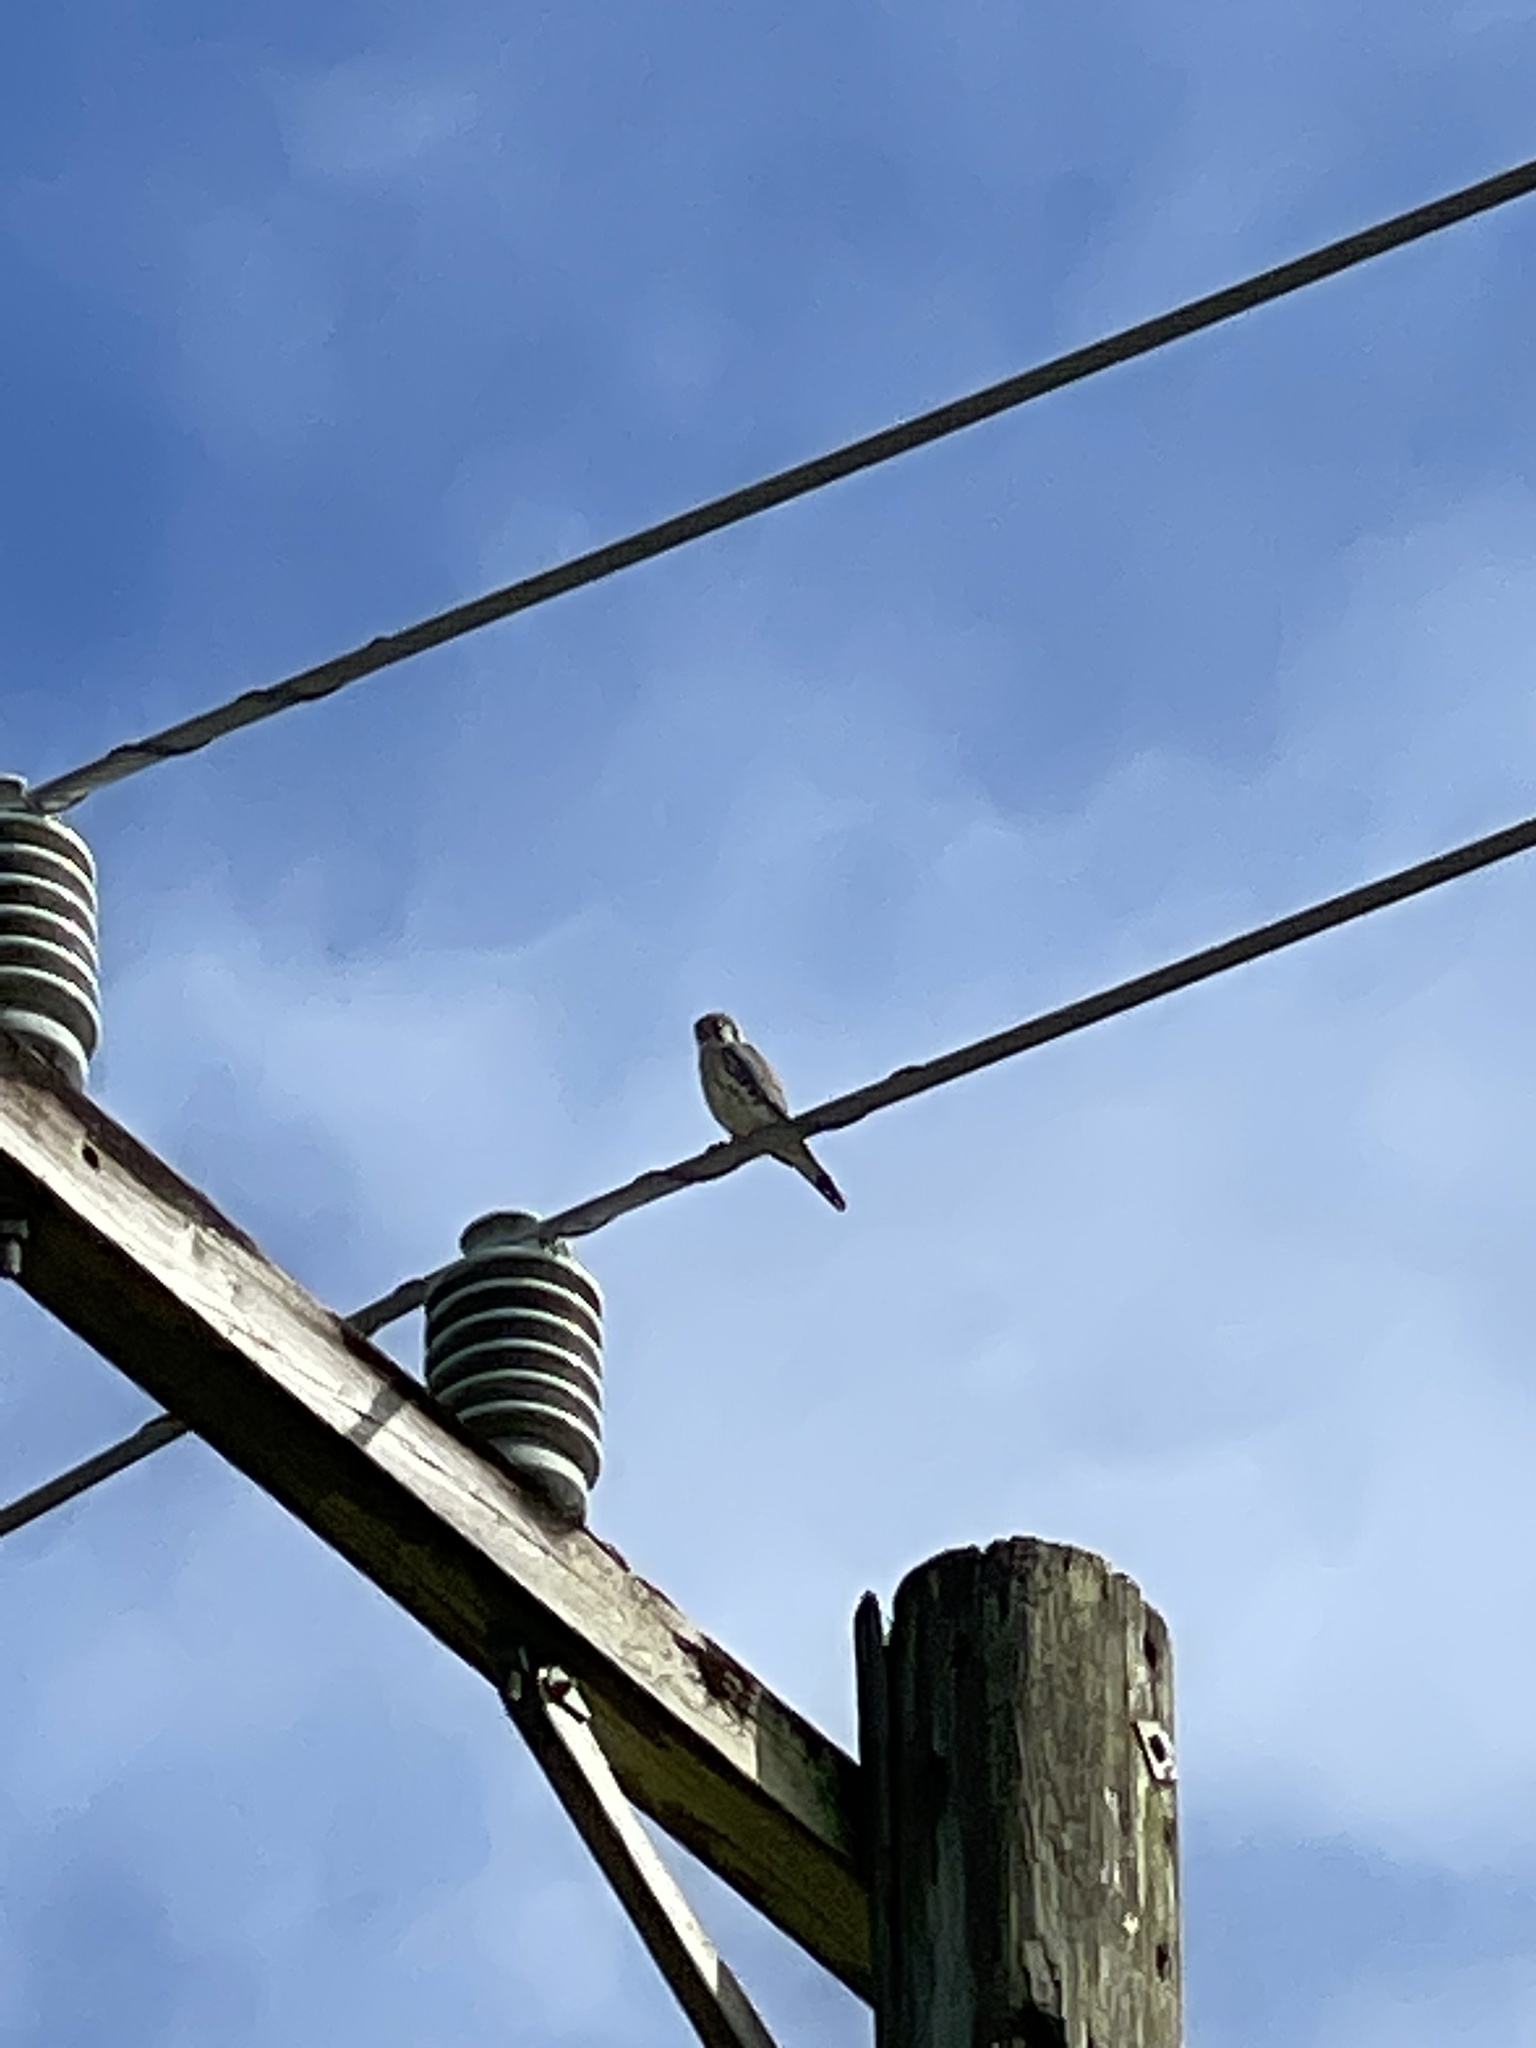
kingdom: Animalia
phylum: Chordata
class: Aves
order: Falconiformes
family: Falconidae
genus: Falco
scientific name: Falco sparverius
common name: American kestrel
